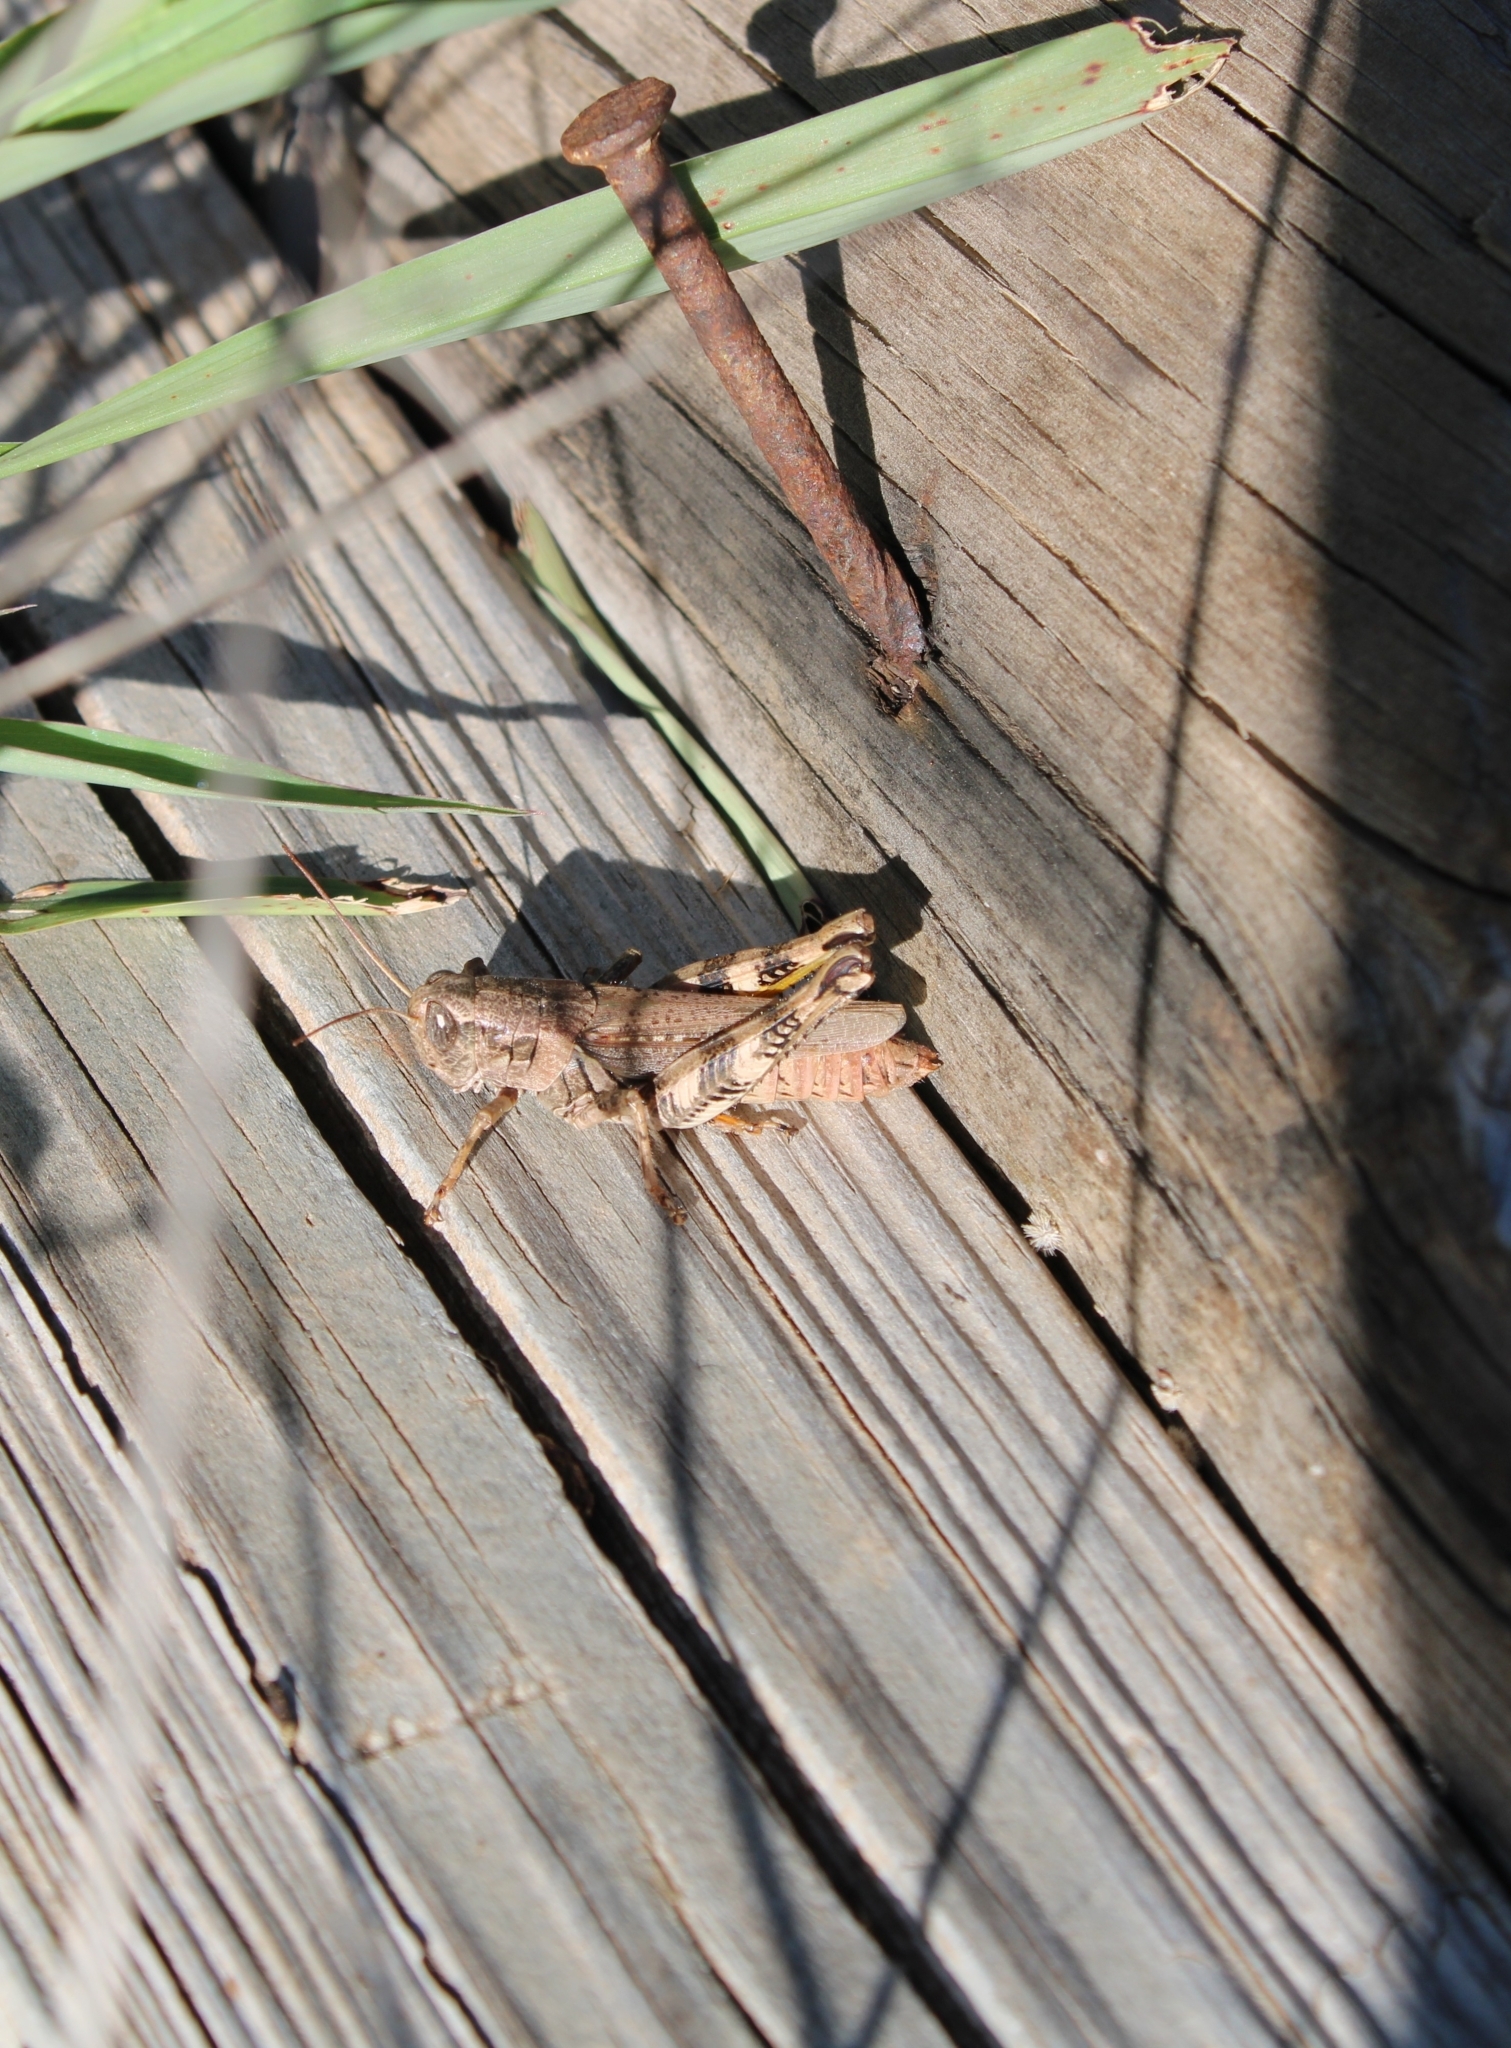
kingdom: Animalia
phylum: Arthropoda
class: Insecta
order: Orthoptera
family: Acrididae
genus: Melanoplus
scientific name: Melanoplus ponderosus
